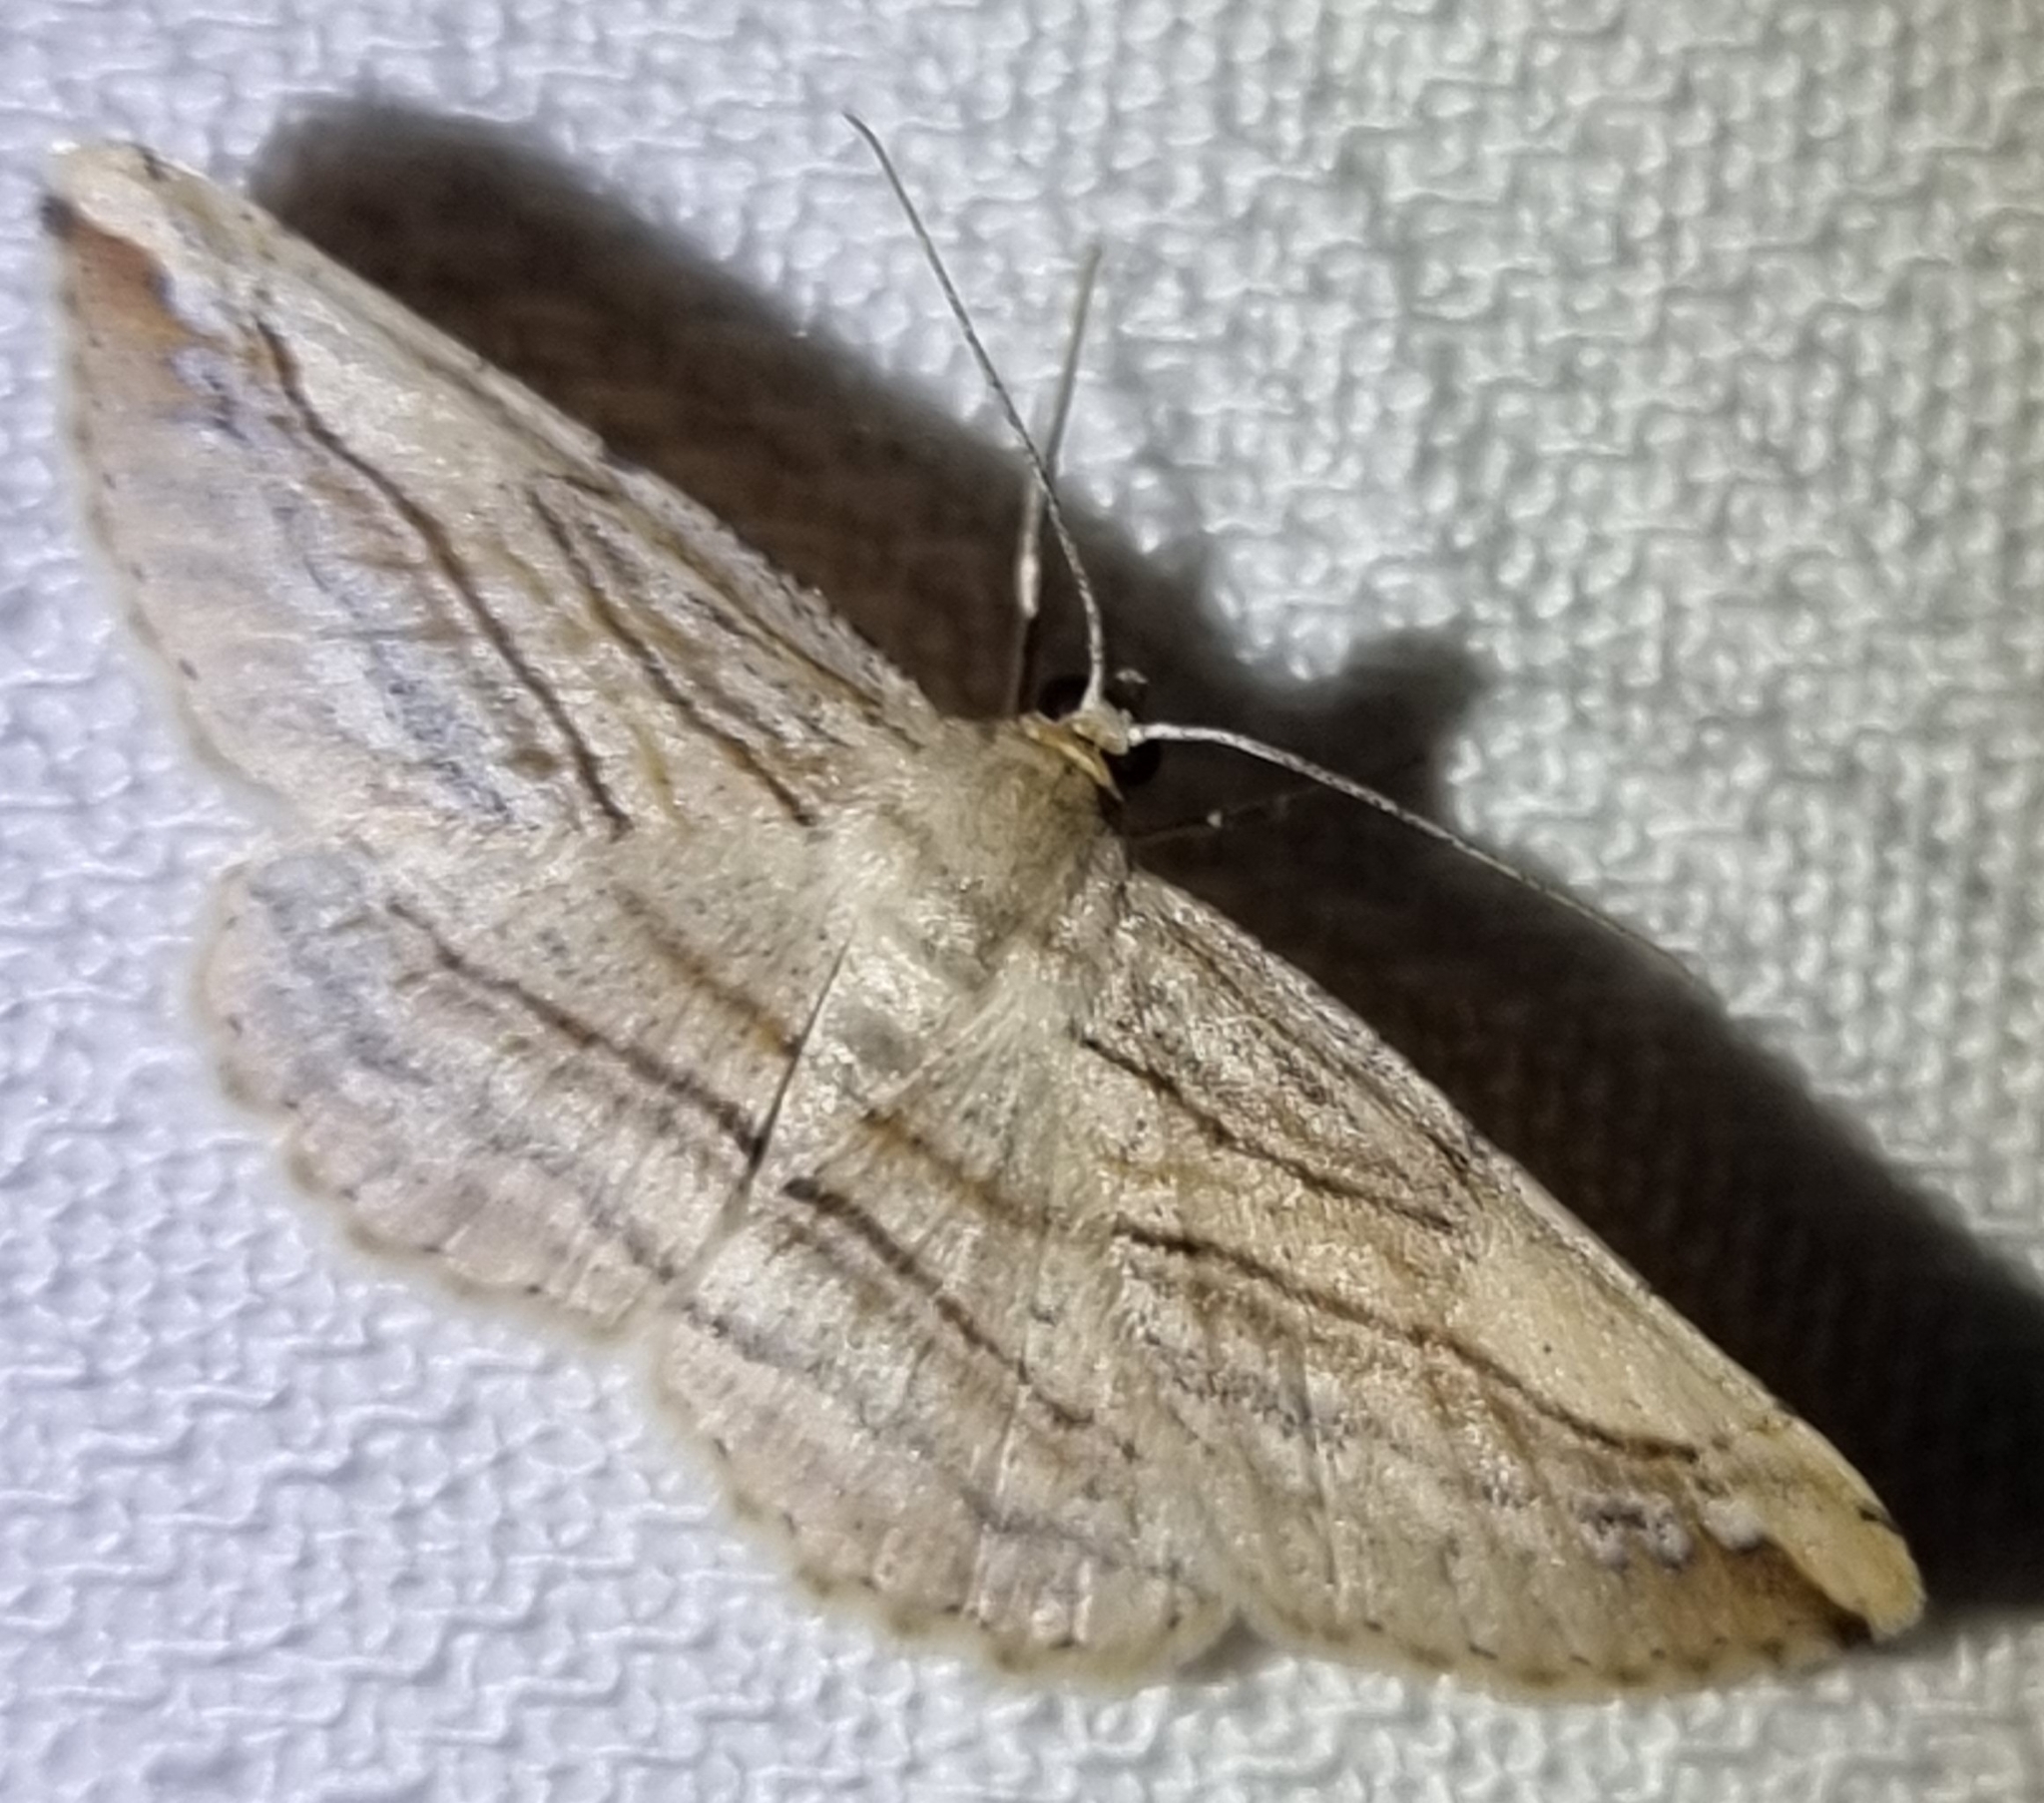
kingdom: Animalia
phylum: Arthropoda
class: Insecta
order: Lepidoptera
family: Geometridae
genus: Syneora
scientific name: Syneora lithina
